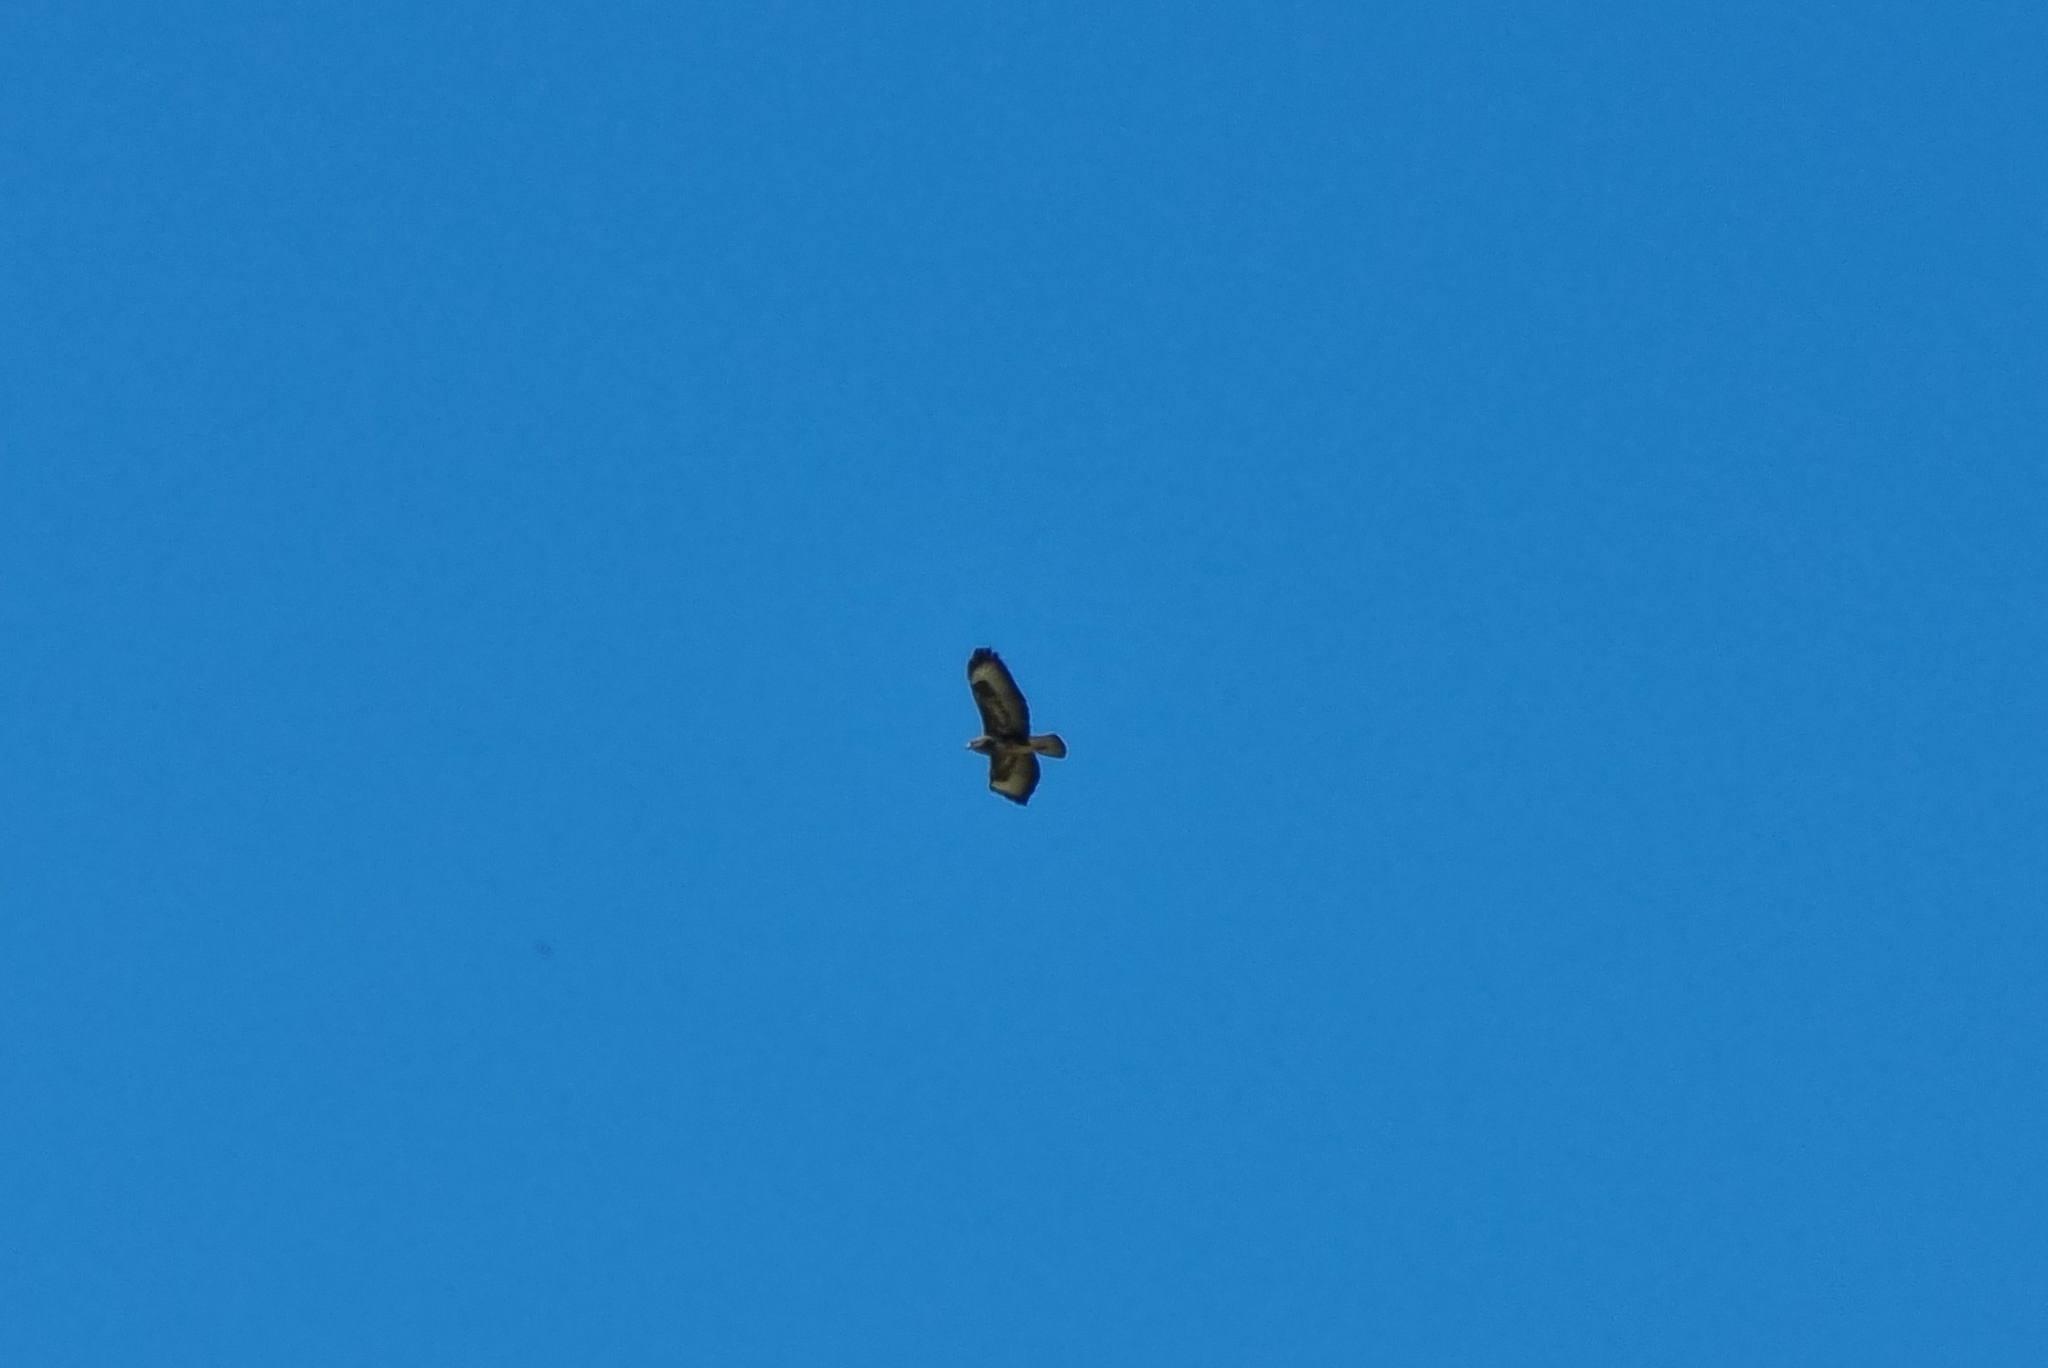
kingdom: Animalia
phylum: Chordata
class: Aves
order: Accipitriformes
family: Accipitridae
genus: Buteo
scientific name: Buteo buteo
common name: Common buzzard
